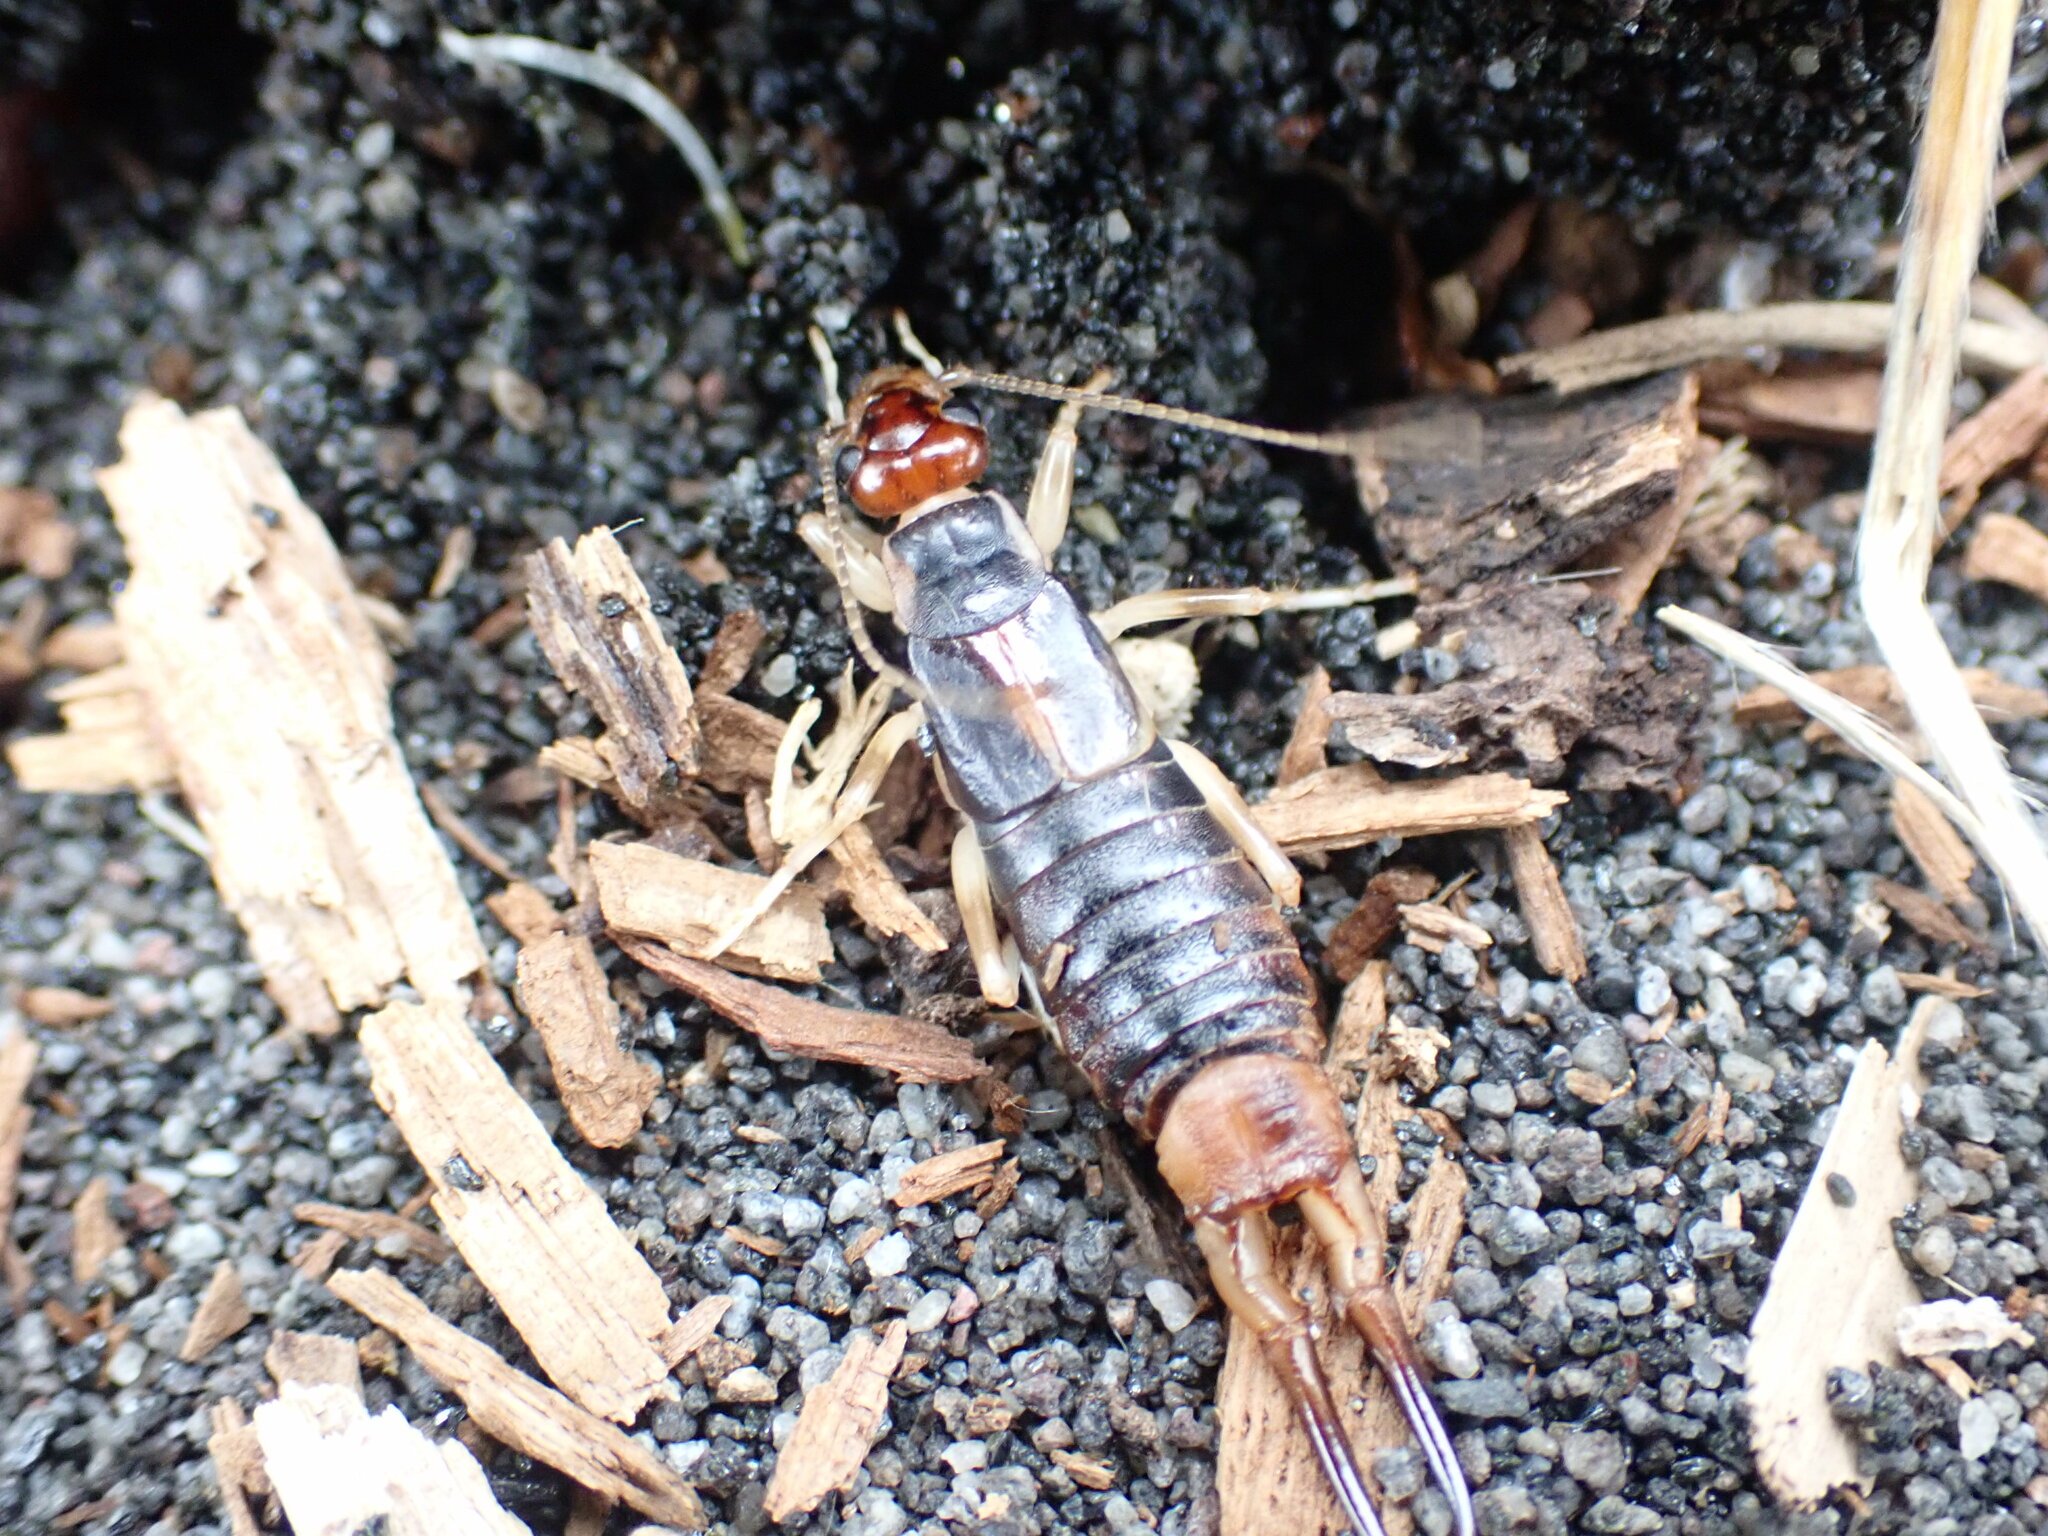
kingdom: Animalia
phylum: Arthropoda
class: Insecta
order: Dermaptera
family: Labiduridae
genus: Labidura
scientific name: Labidura riparia
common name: Striped earwig
